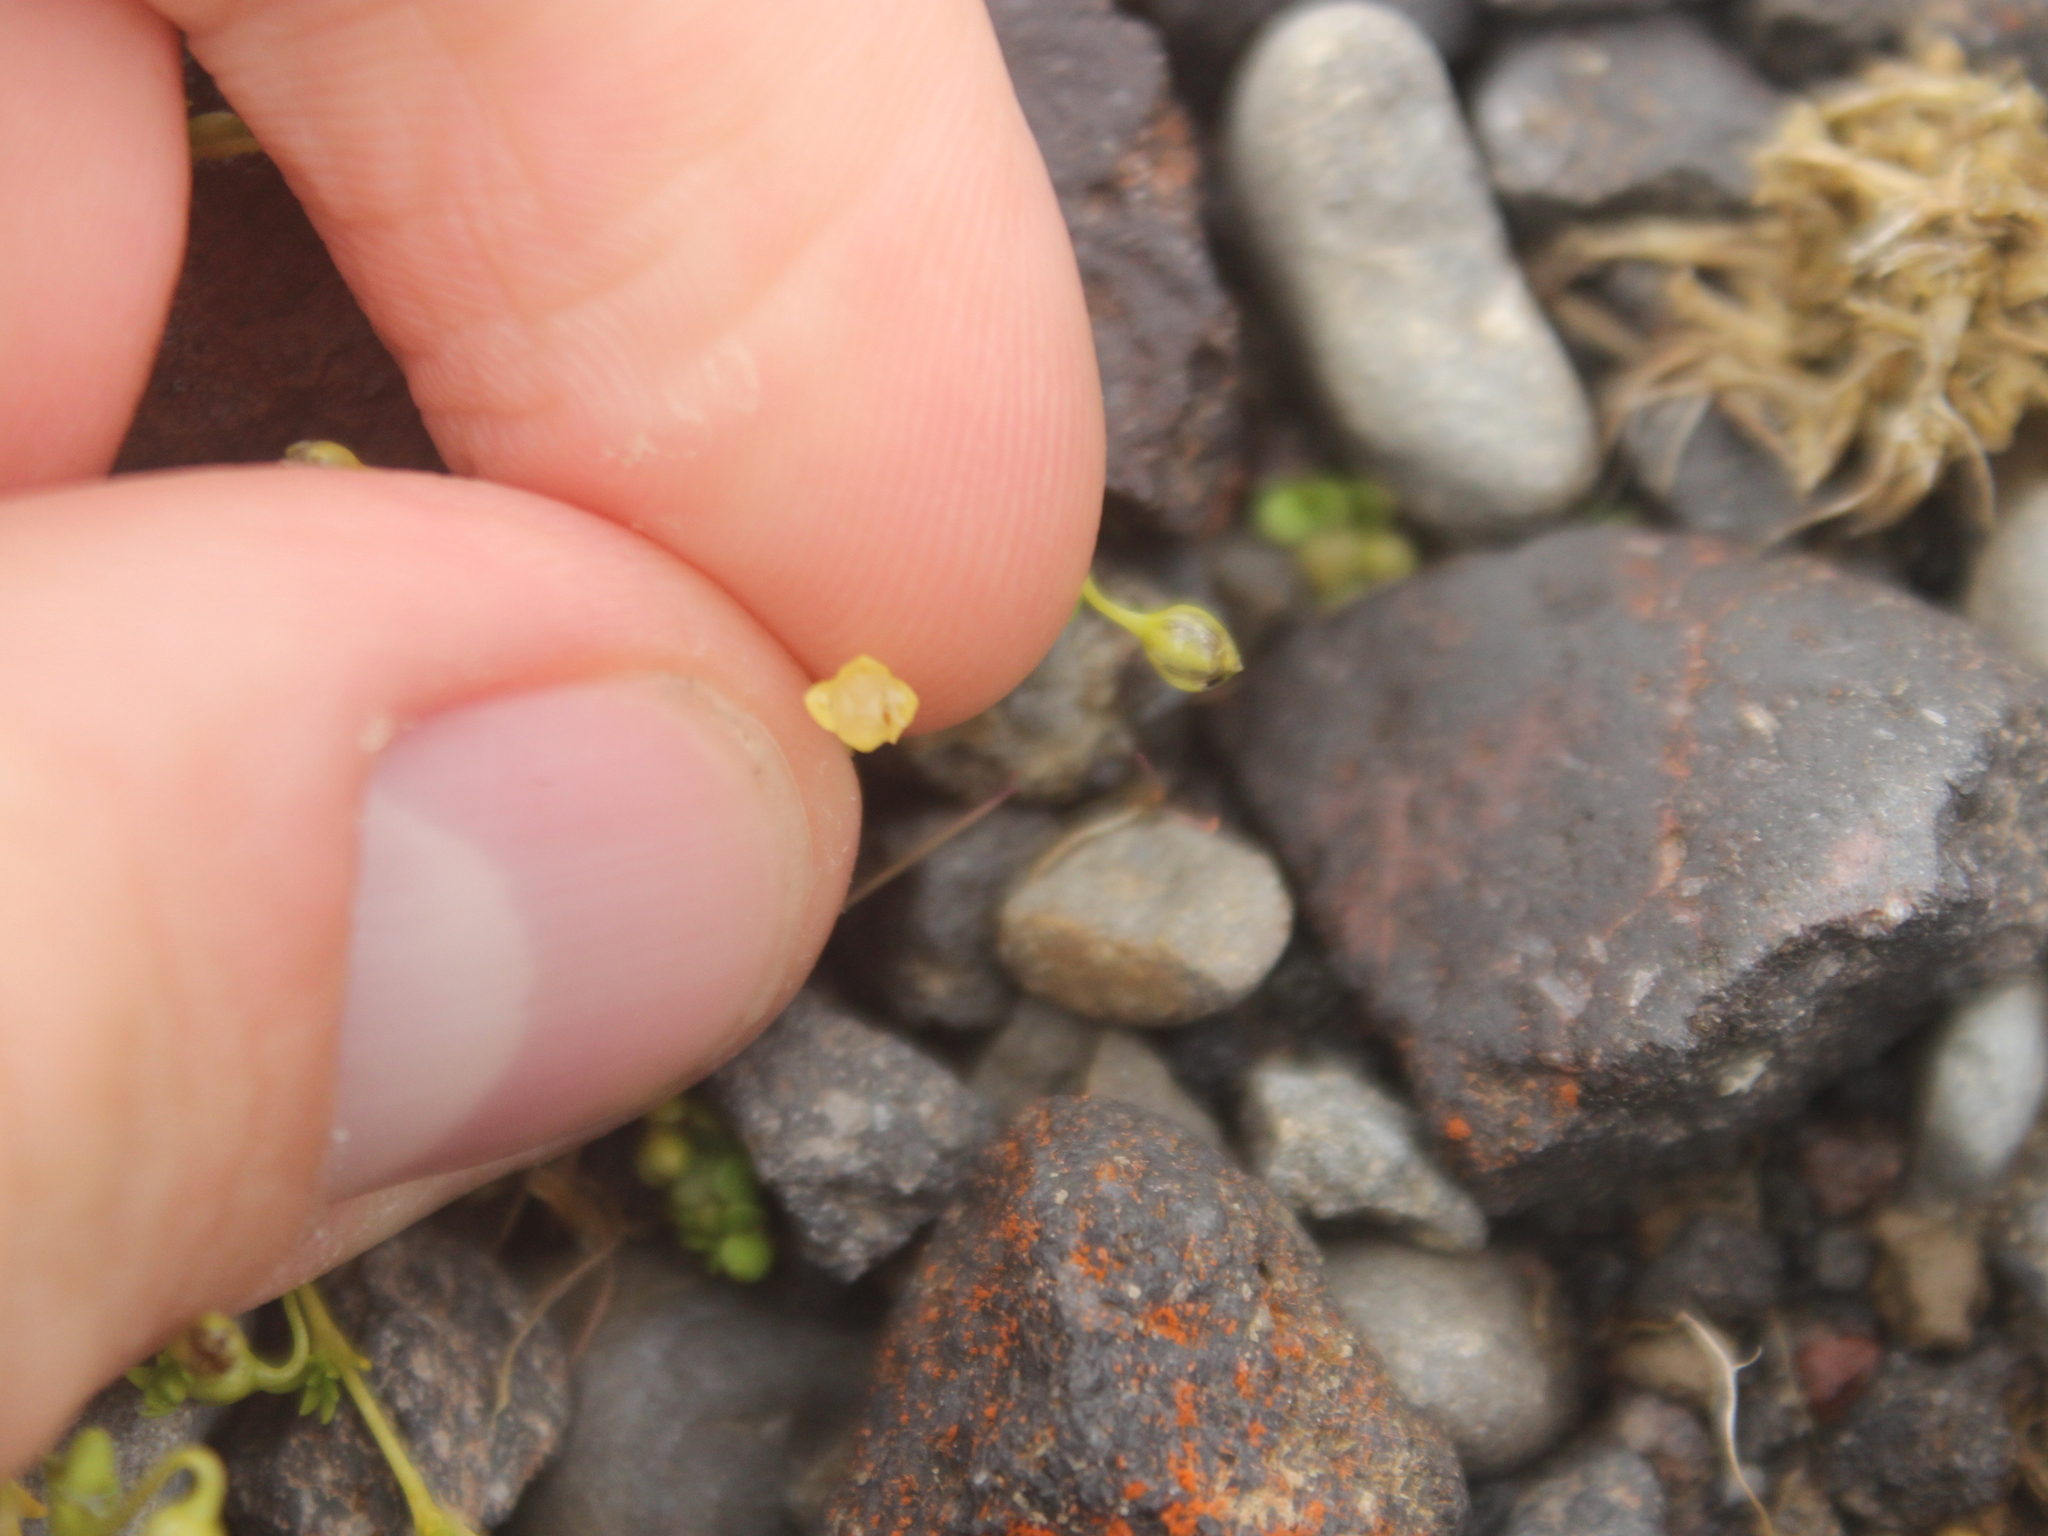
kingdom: Plantae
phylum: Tracheophyta
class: Magnoliopsida
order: Caryophyllales
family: Caryophyllaceae
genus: Sagina
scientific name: Sagina procumbens
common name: Procumbent pearlwort
